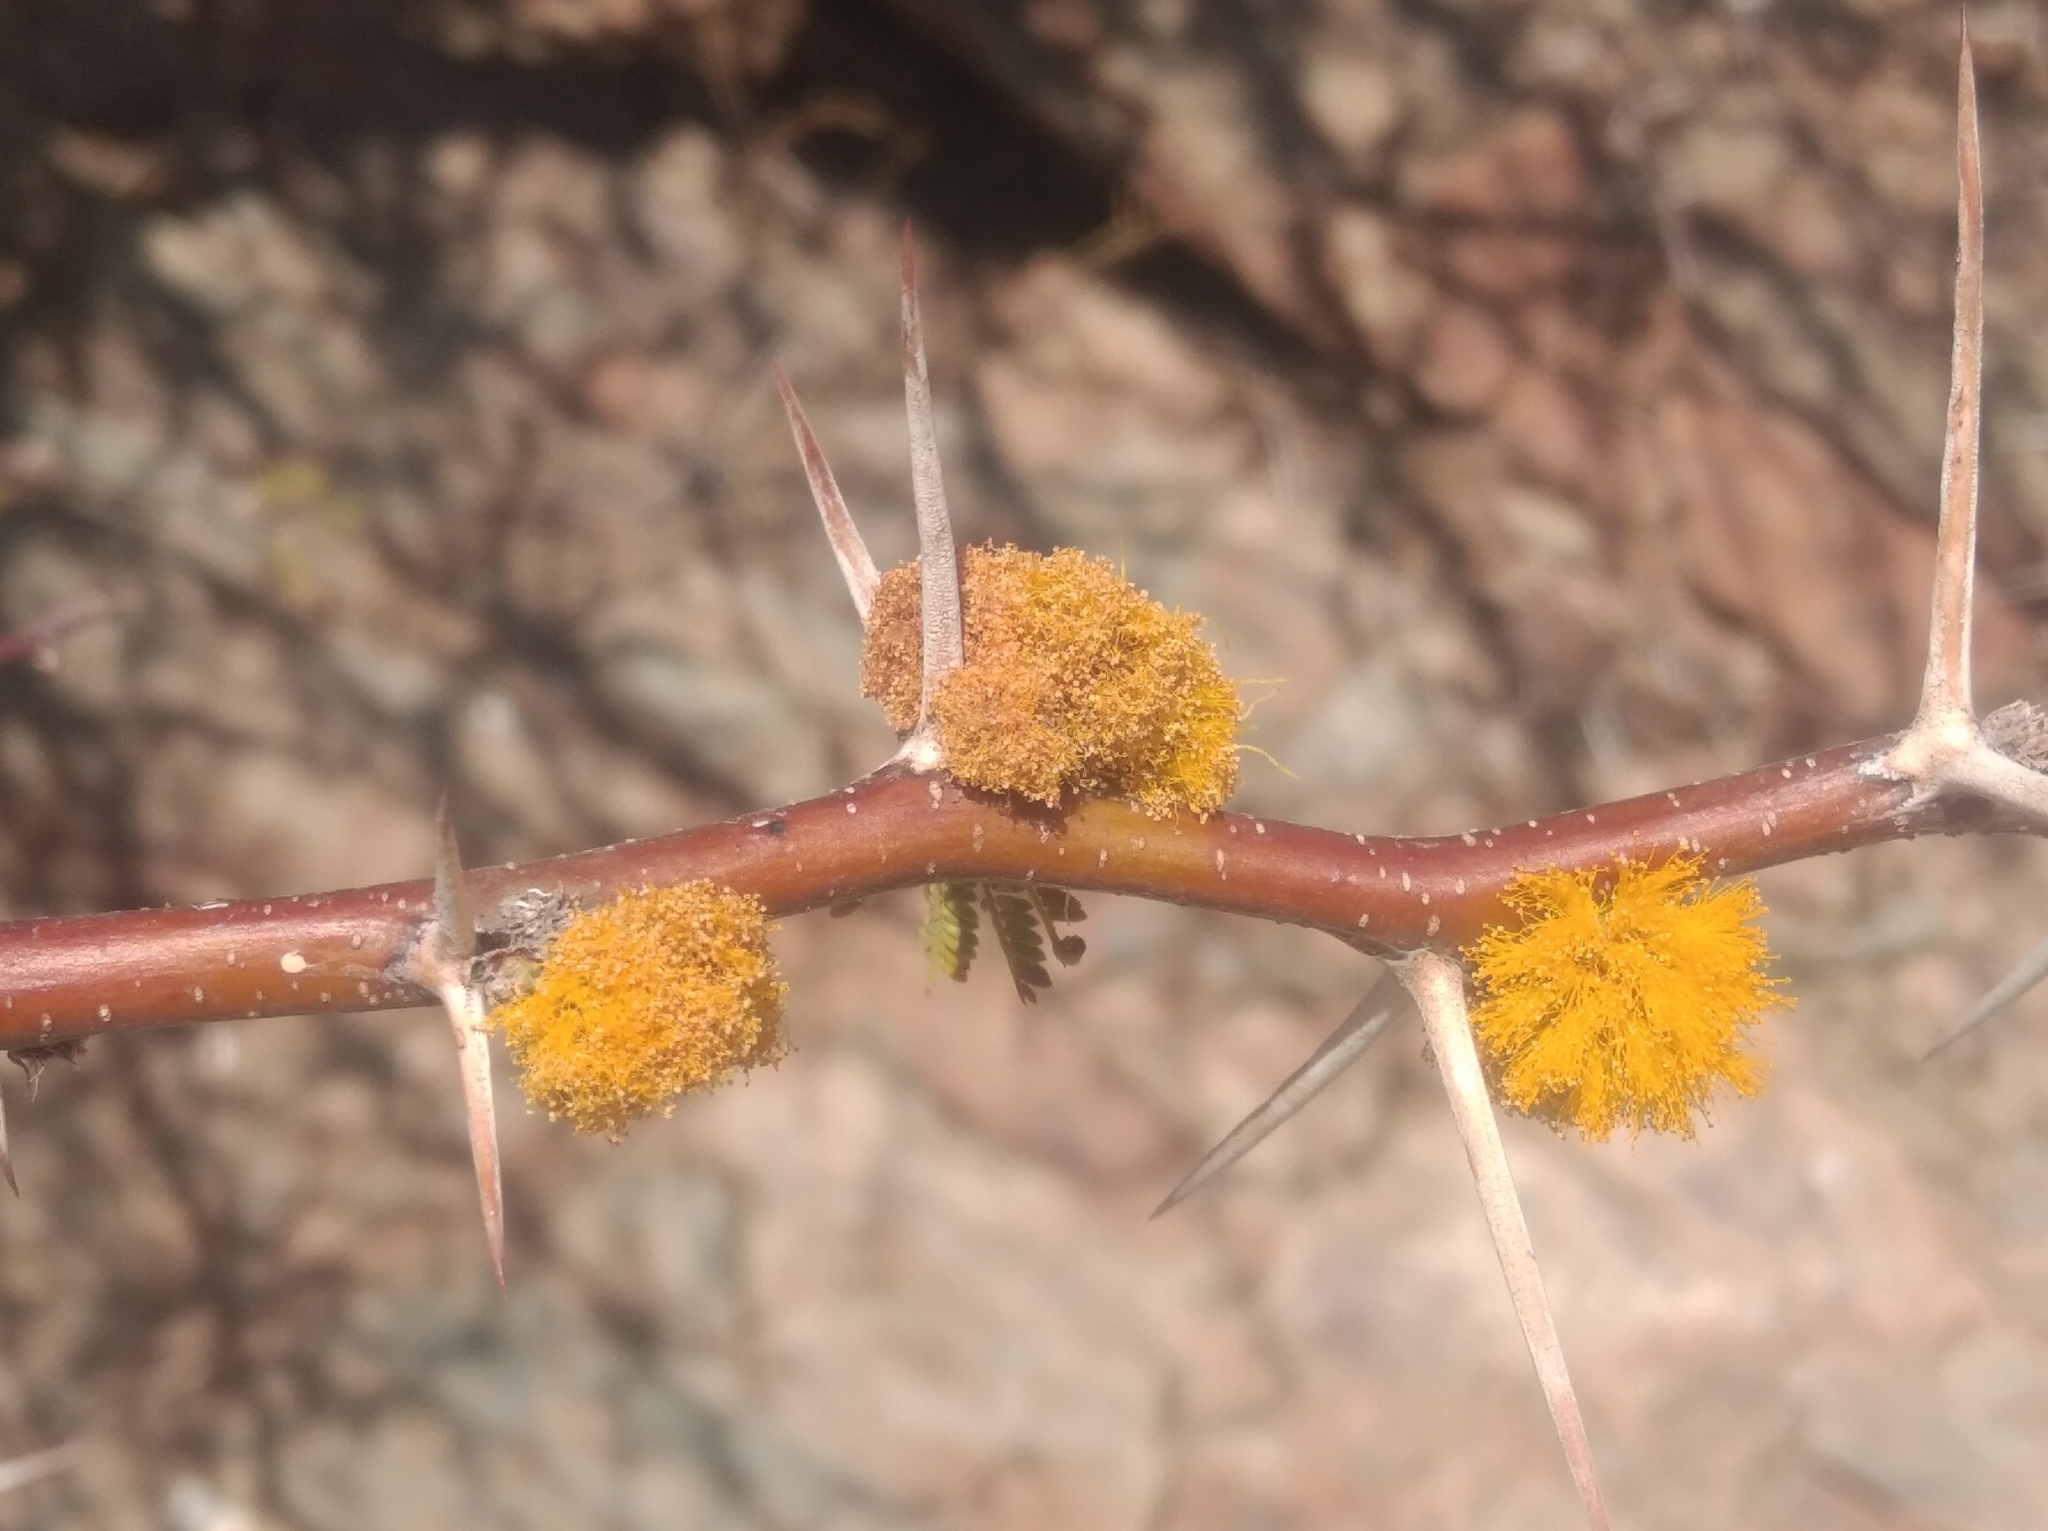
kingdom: Plantae
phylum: Tracheophyta
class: Magnoliopsida
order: Fabales
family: Fabaceae
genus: Vachellia
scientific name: Vachellia caven
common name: Roman cassie
